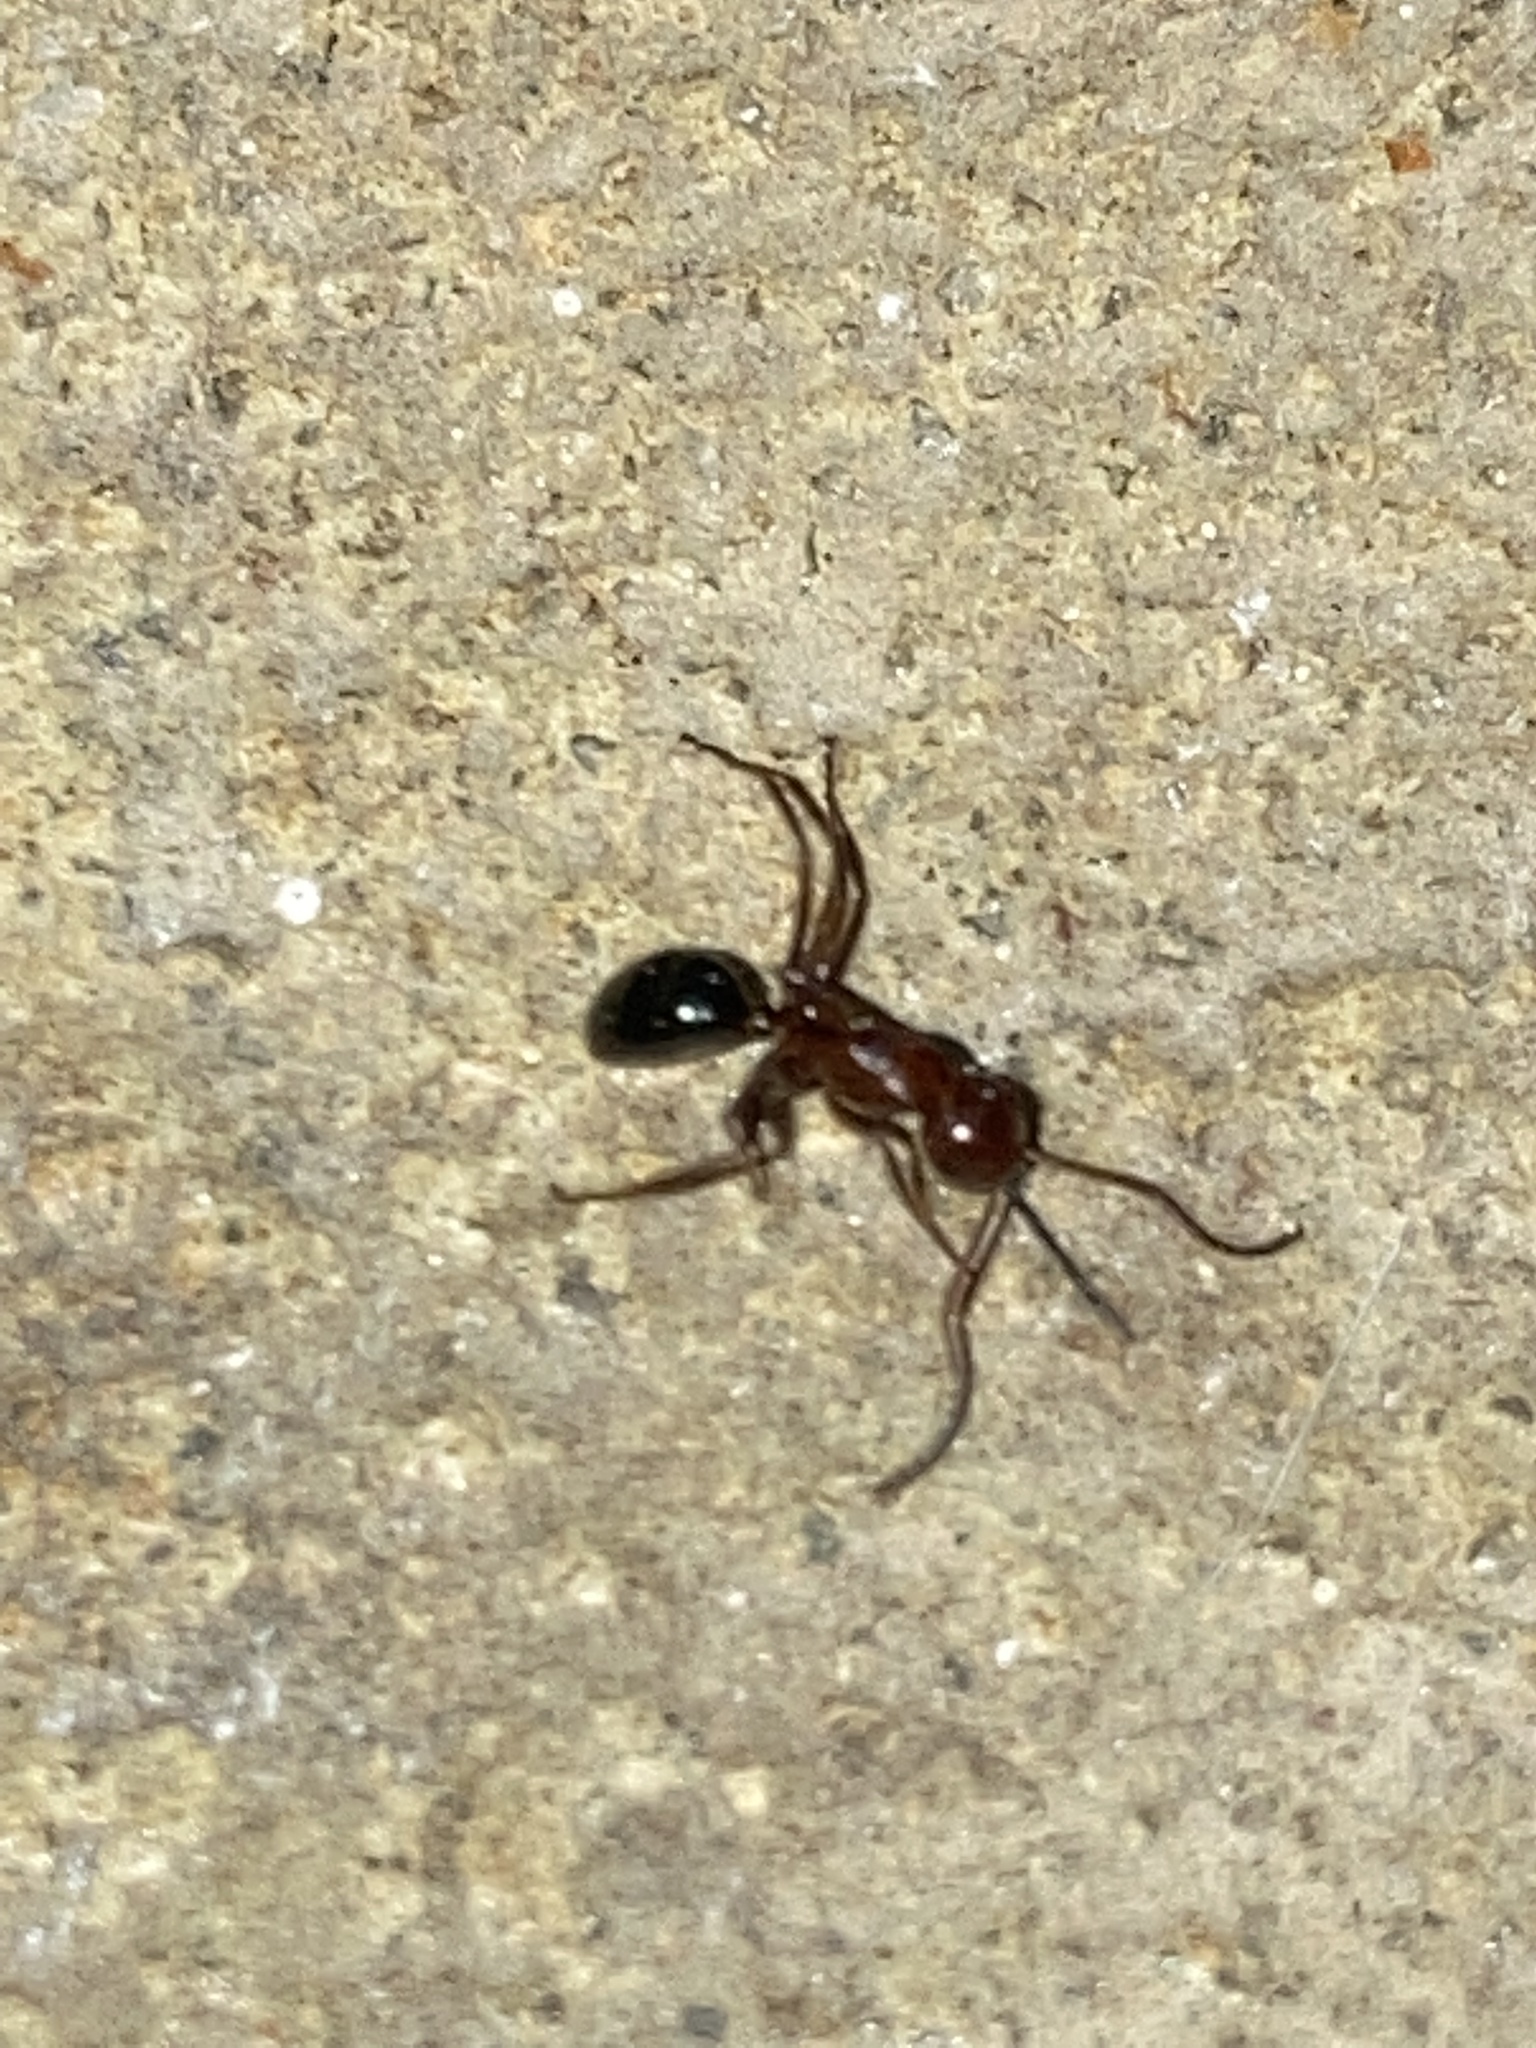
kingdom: Animalia
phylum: Arthropoda
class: Insecta
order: Hymenoptera
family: Formicidae
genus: Camponotus
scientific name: Camponotus decipiens
